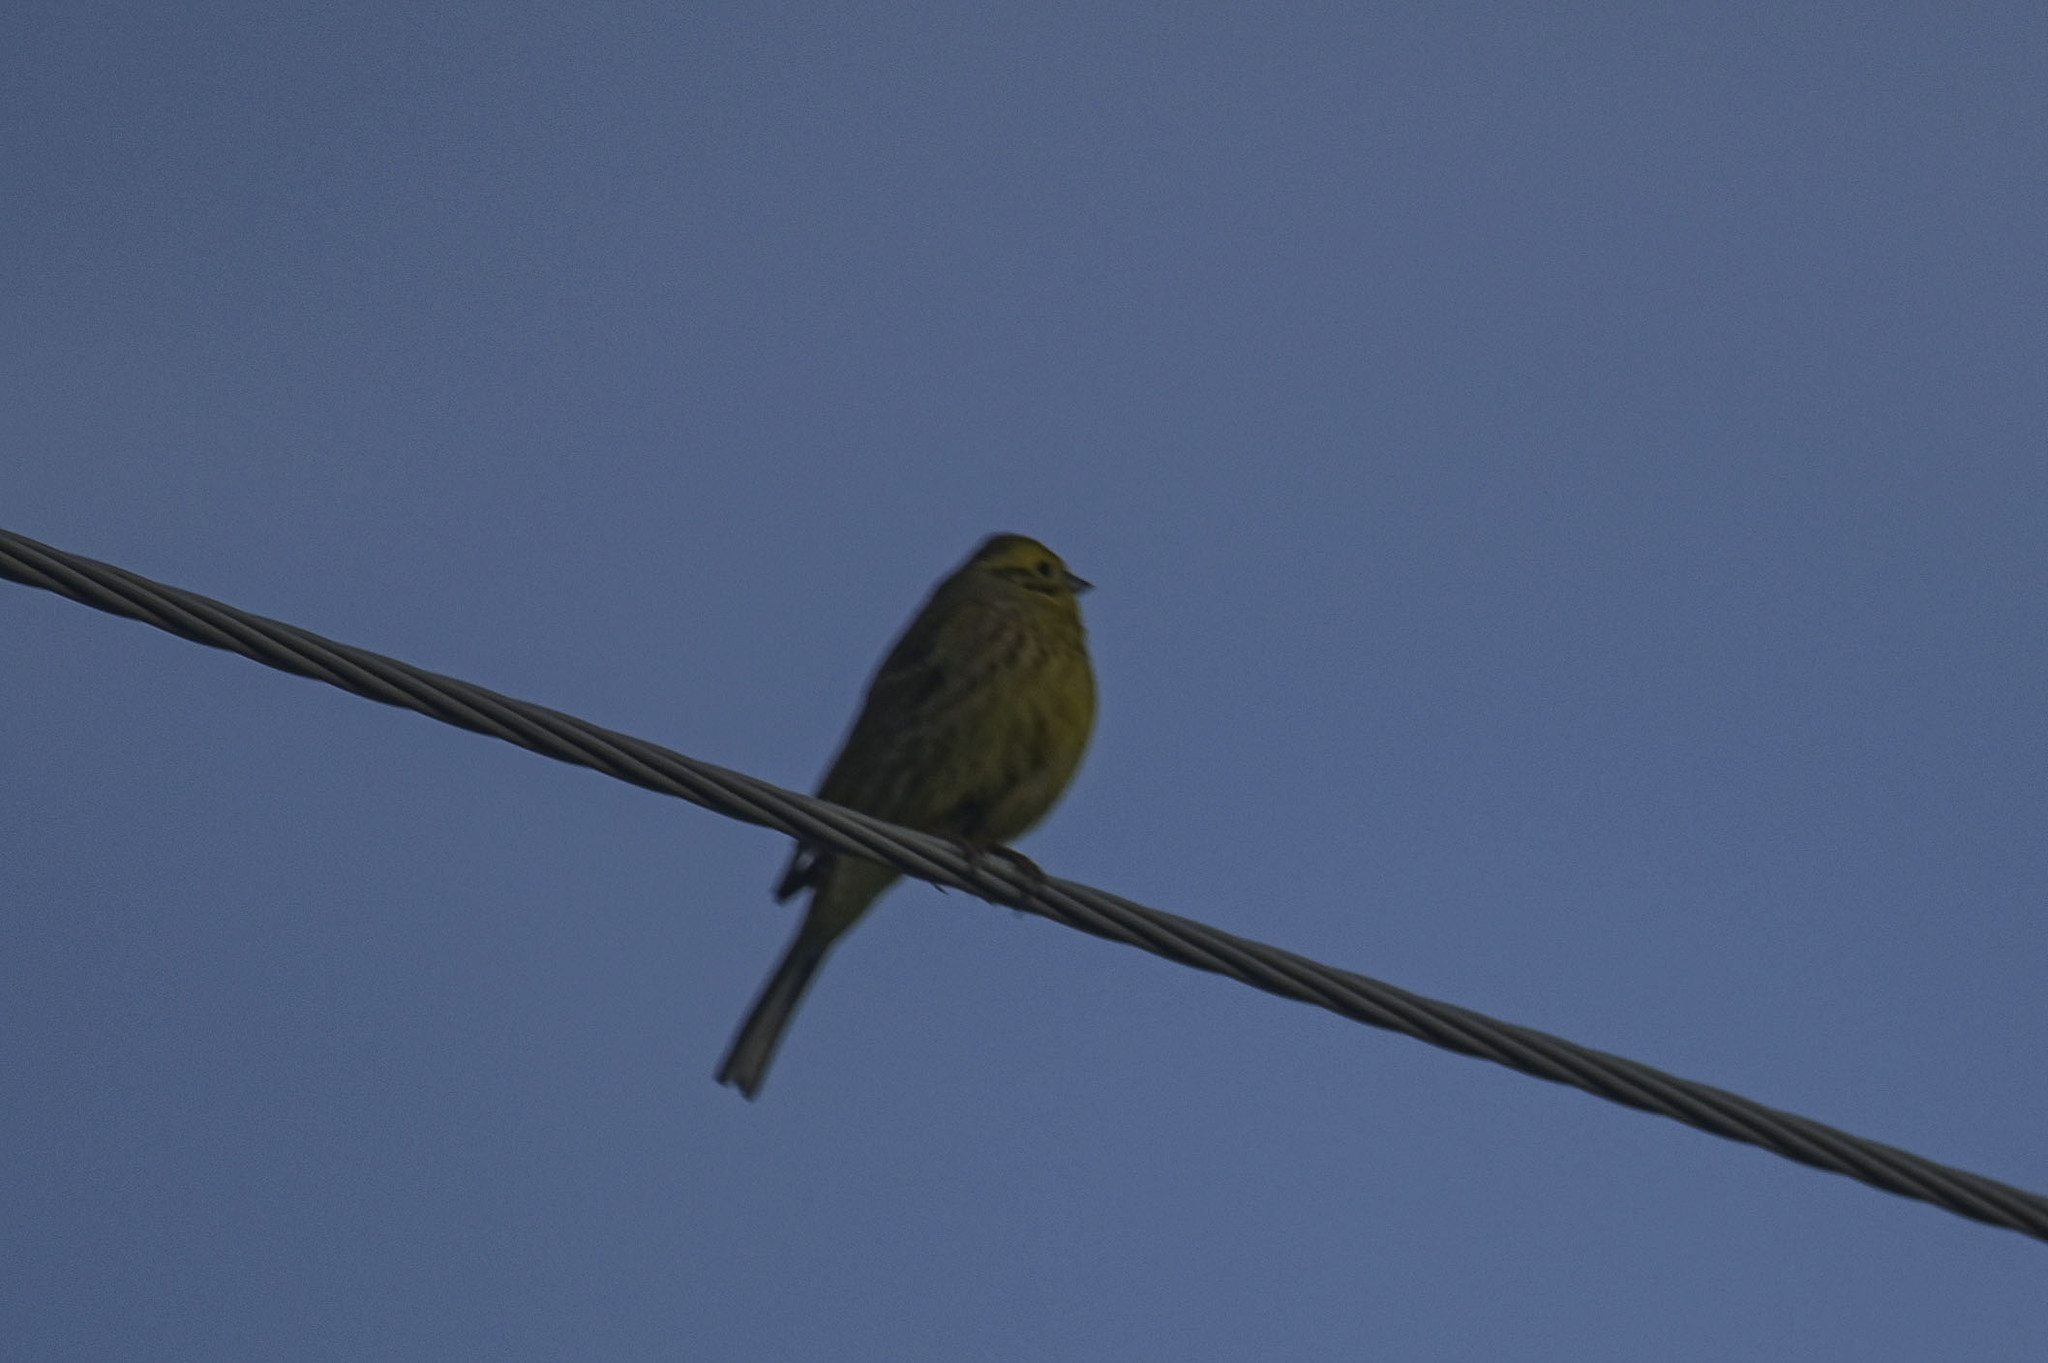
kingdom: Animalia
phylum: Chordata
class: Aves
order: Passeriformes
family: Emberizidae
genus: Emberiza
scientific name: Emberiza citrinella
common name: Yellowhammer
